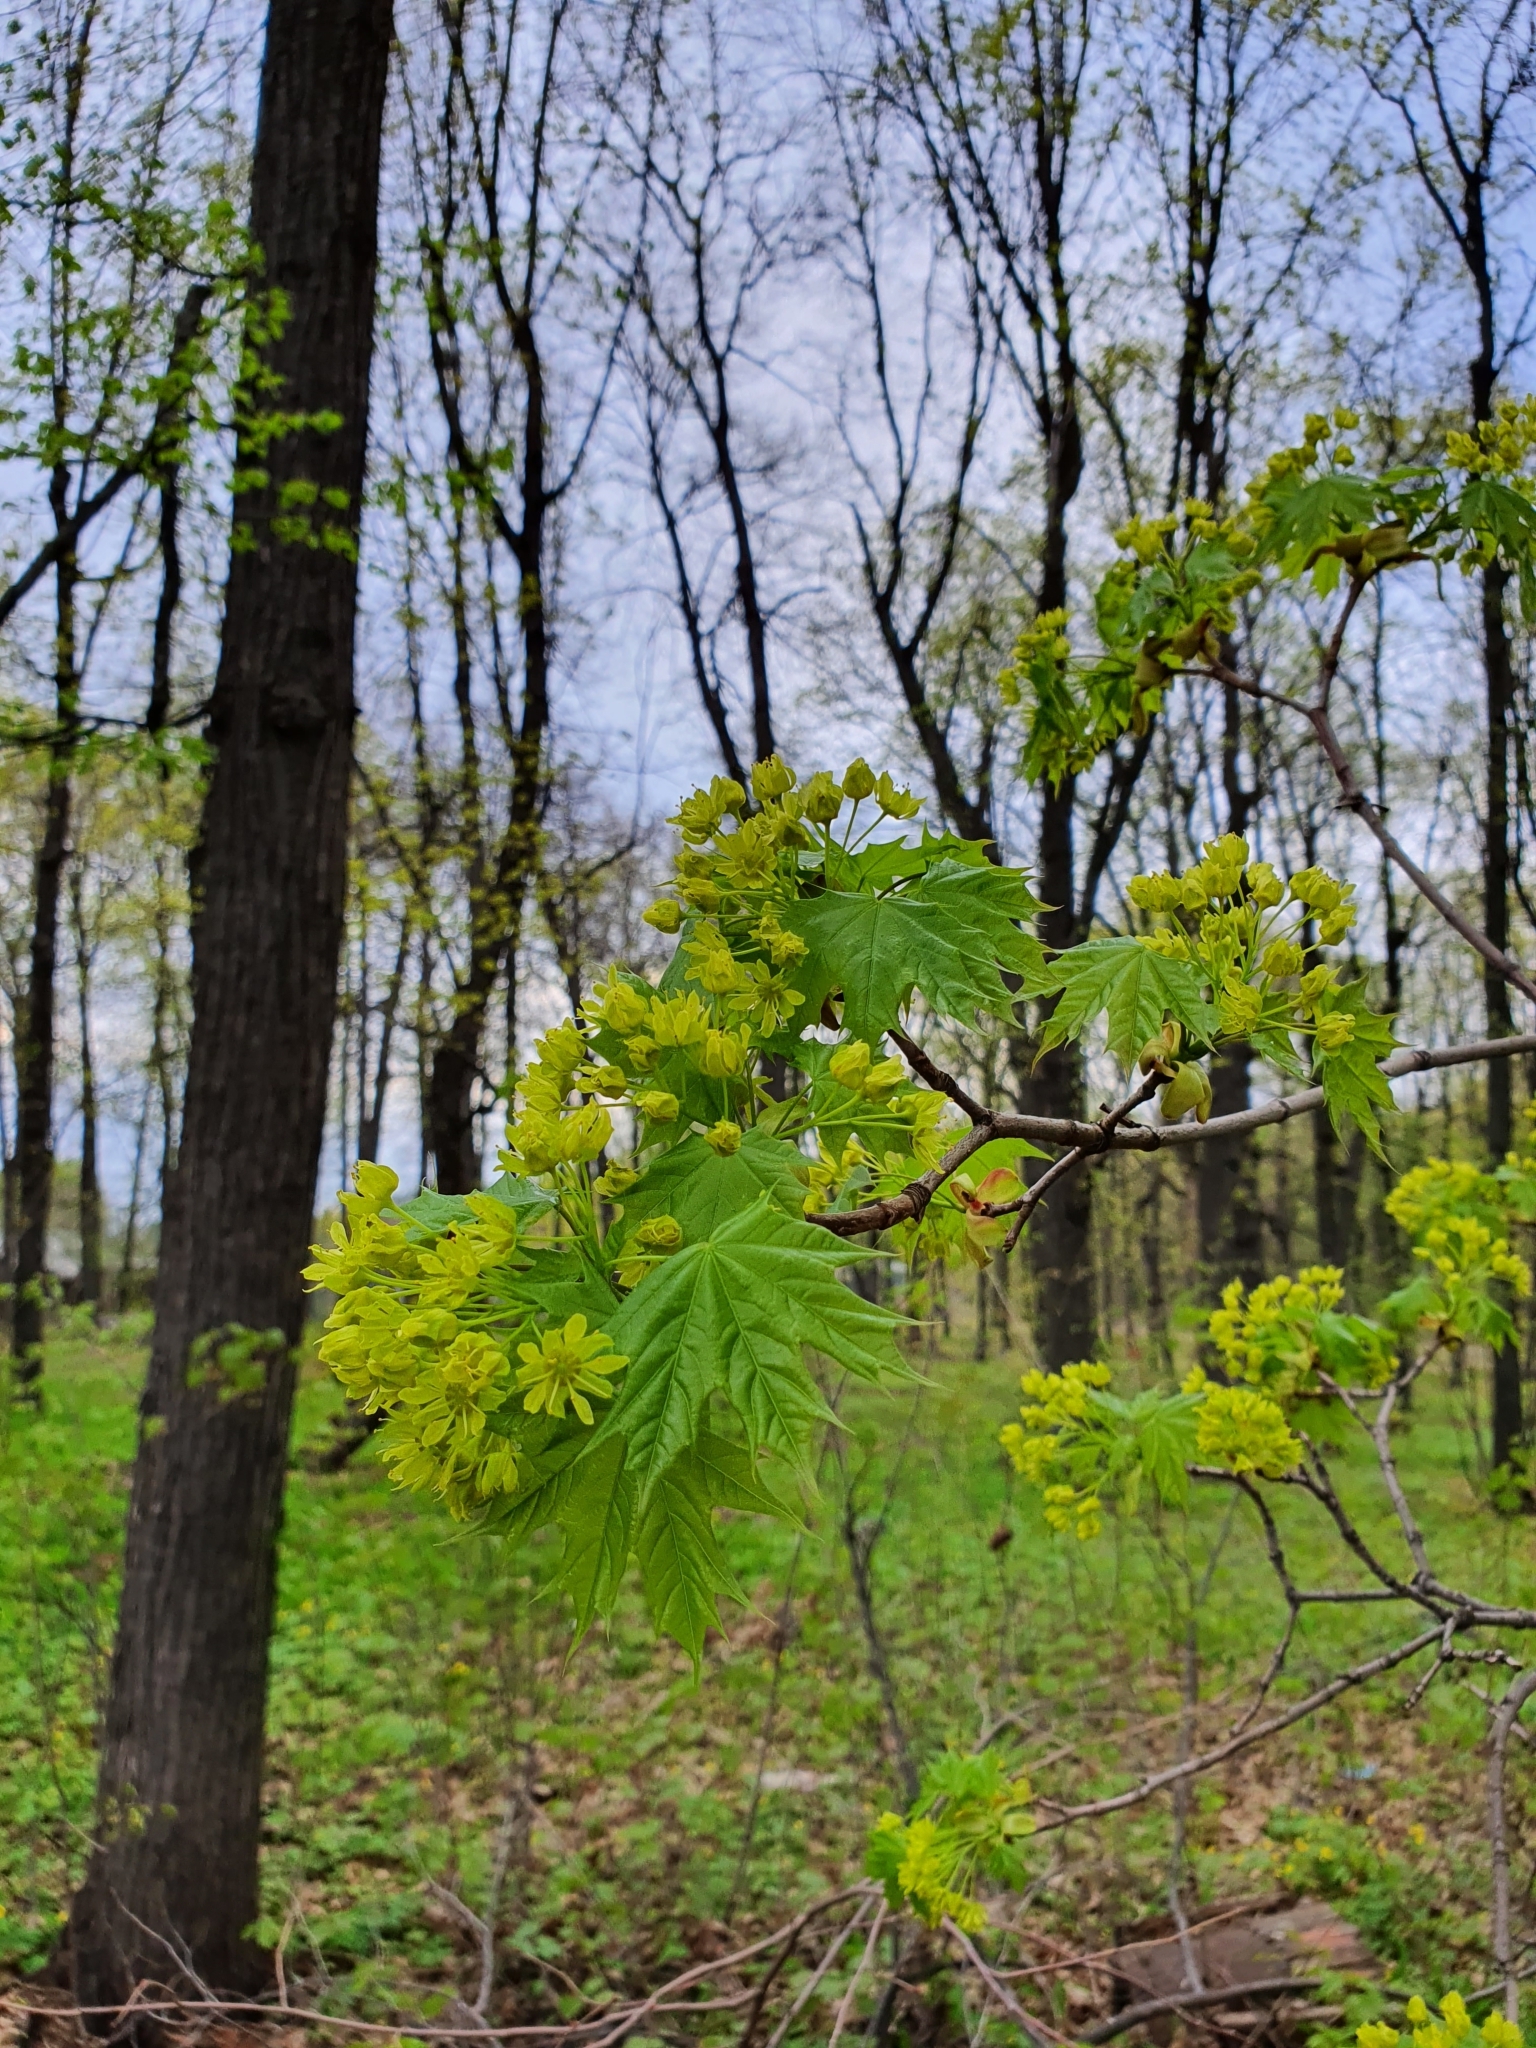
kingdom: Plantae
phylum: Tracheophyta
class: Magnoliopsida
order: Sapindales
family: Sapindaceae
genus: Acer
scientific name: Acer platanoides
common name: Norway maple
